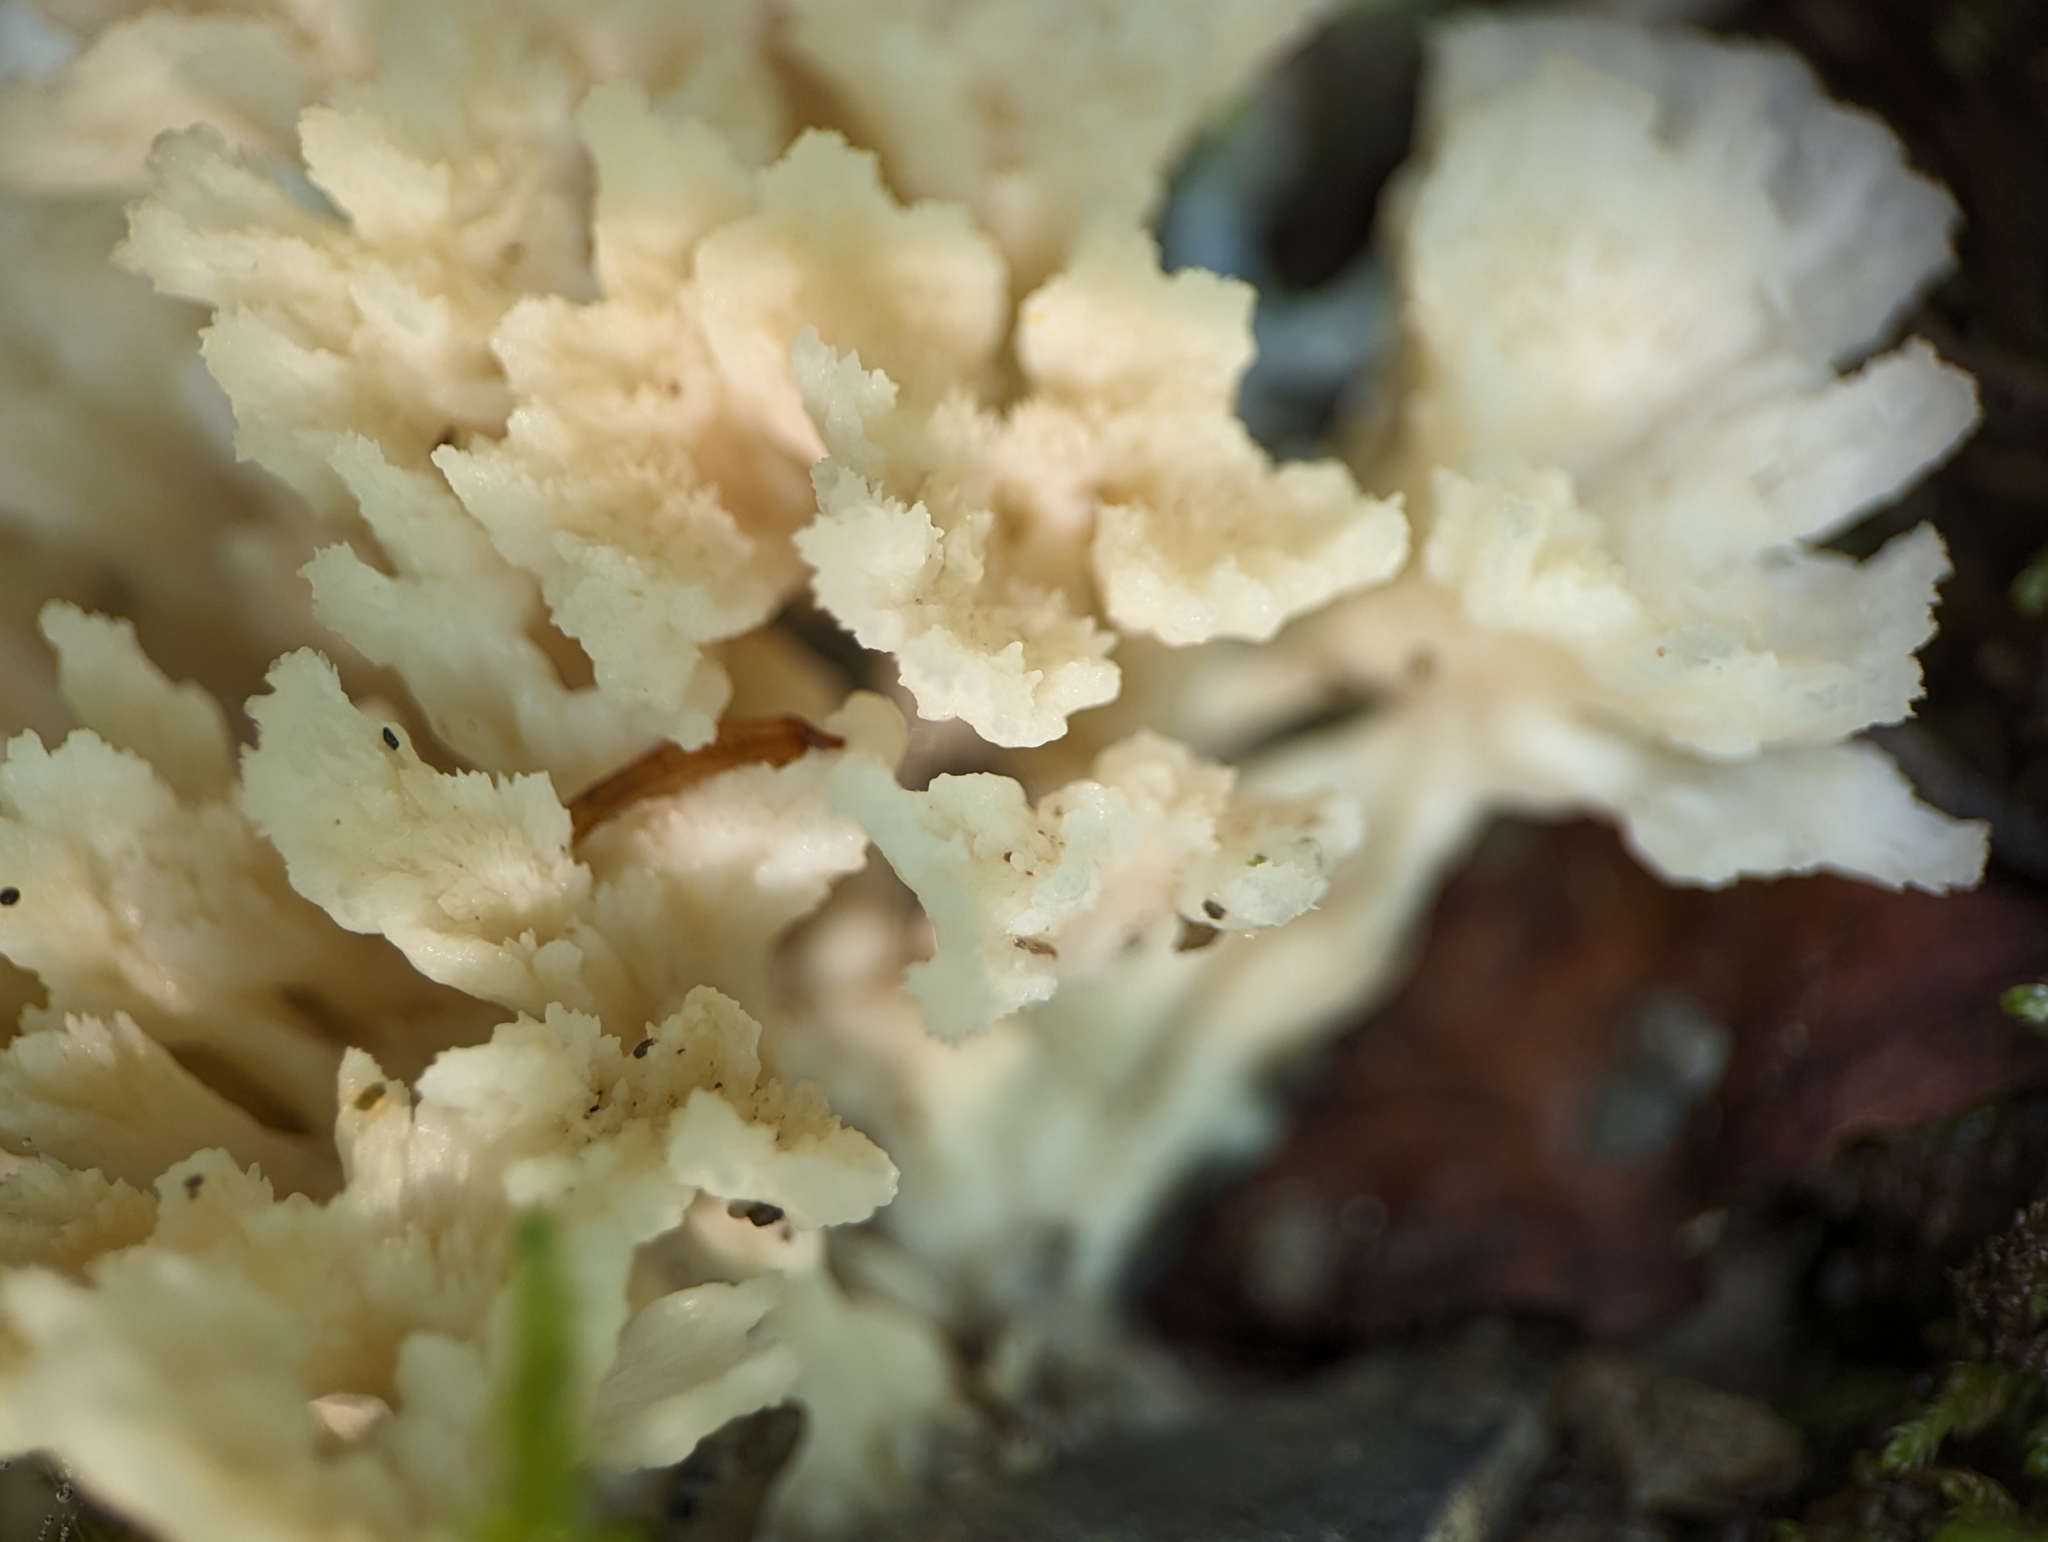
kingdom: Fungi
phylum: Basidiomycota
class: Agaricomycetes
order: Sebacinales
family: Sebacinaceae
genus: Sebacina
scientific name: Sebacina schweinitzii
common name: Jellied false coral fungus
